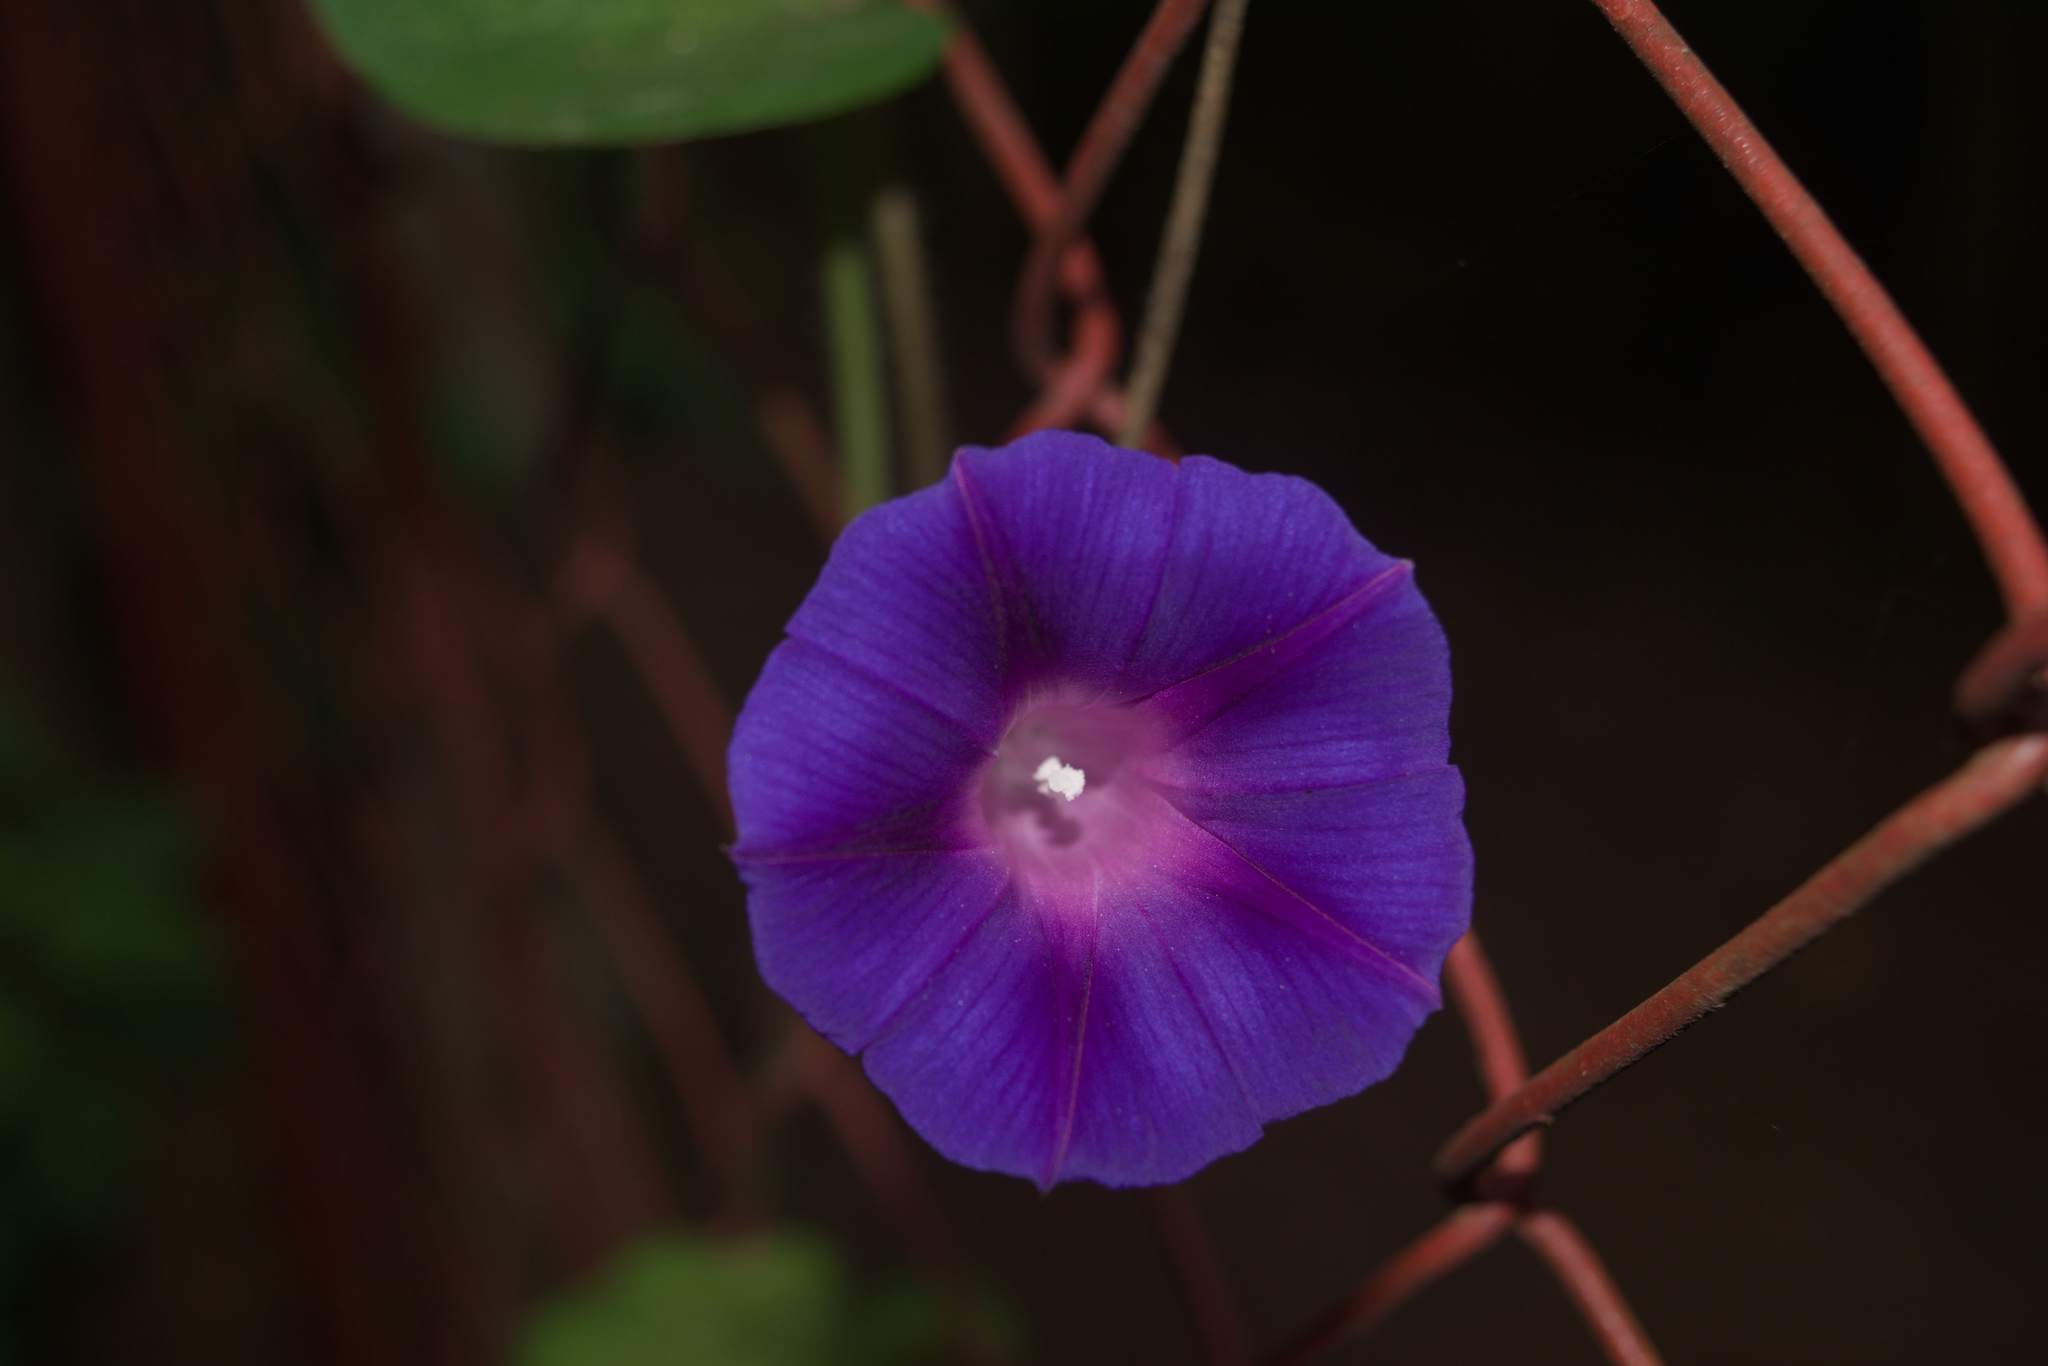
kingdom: Plantae
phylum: Tracheophyta
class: Magnoliopsida
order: Solanales
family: Convolvulaceae
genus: Ipomoea
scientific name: Ipomoea purpurea
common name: Common morning-glory
